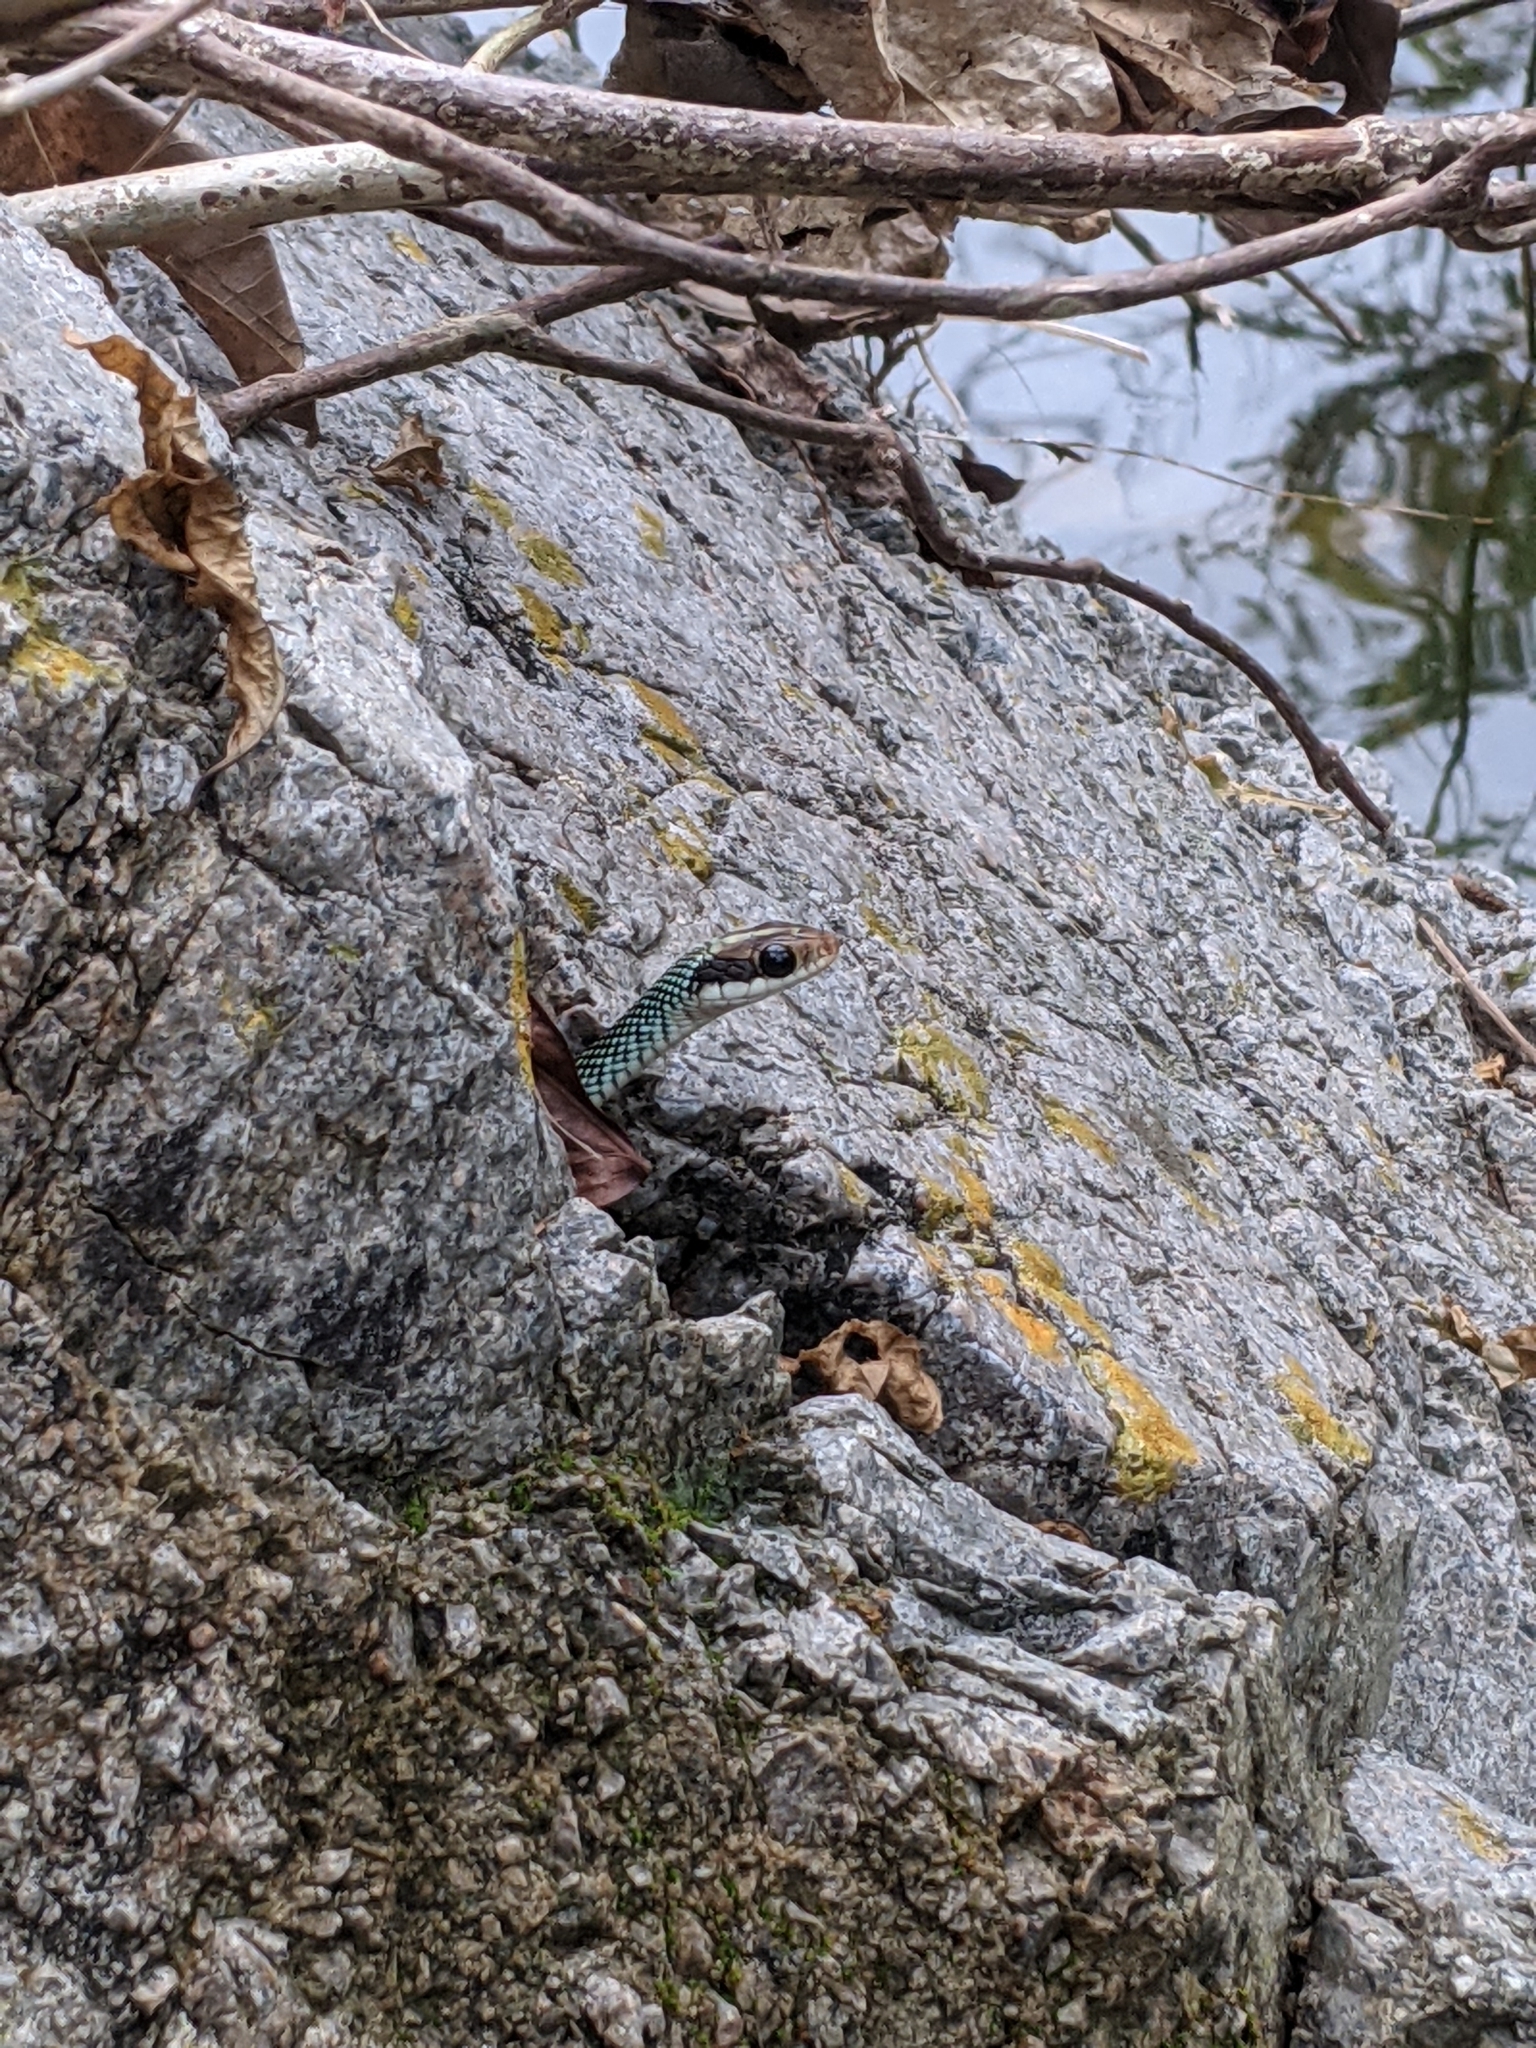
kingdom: Animalia
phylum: Chordata
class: Squamata
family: Colubridae
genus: Drymobius
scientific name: Drymobius margaritiferus
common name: Central american speckled racer
